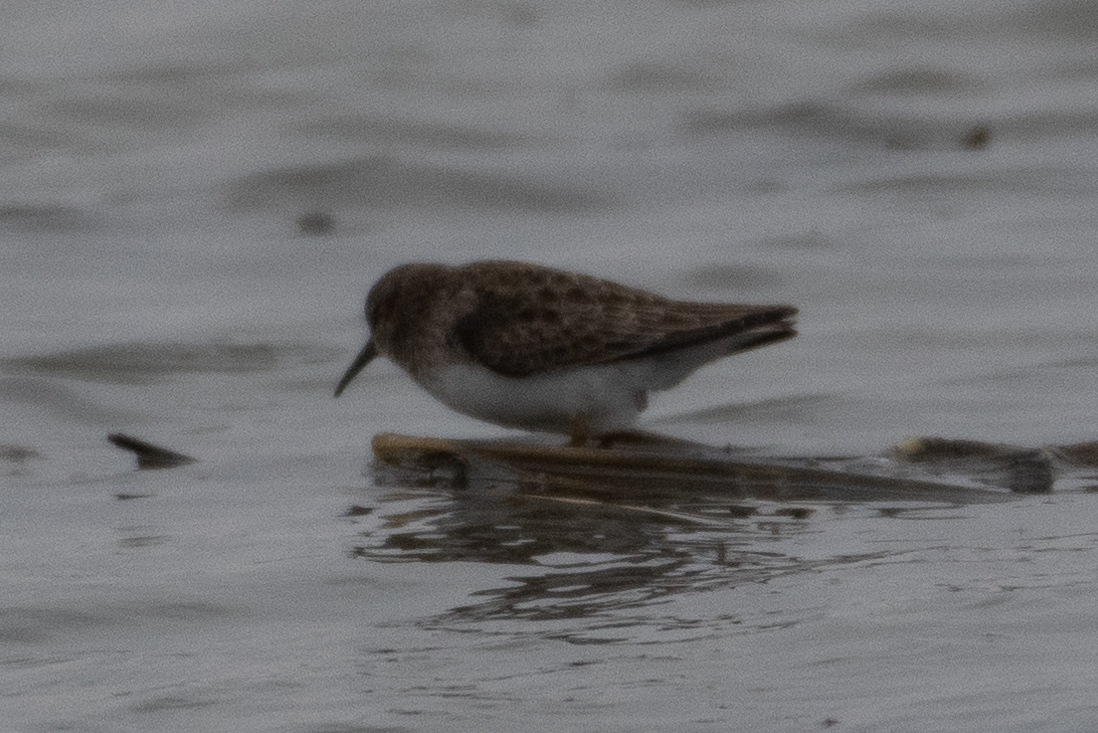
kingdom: Animalia
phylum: Chordata
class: Aves
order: Charadriiformes
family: Scolopacidae
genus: Calidris
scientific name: Calidris minutilla
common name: Least sandpiper
